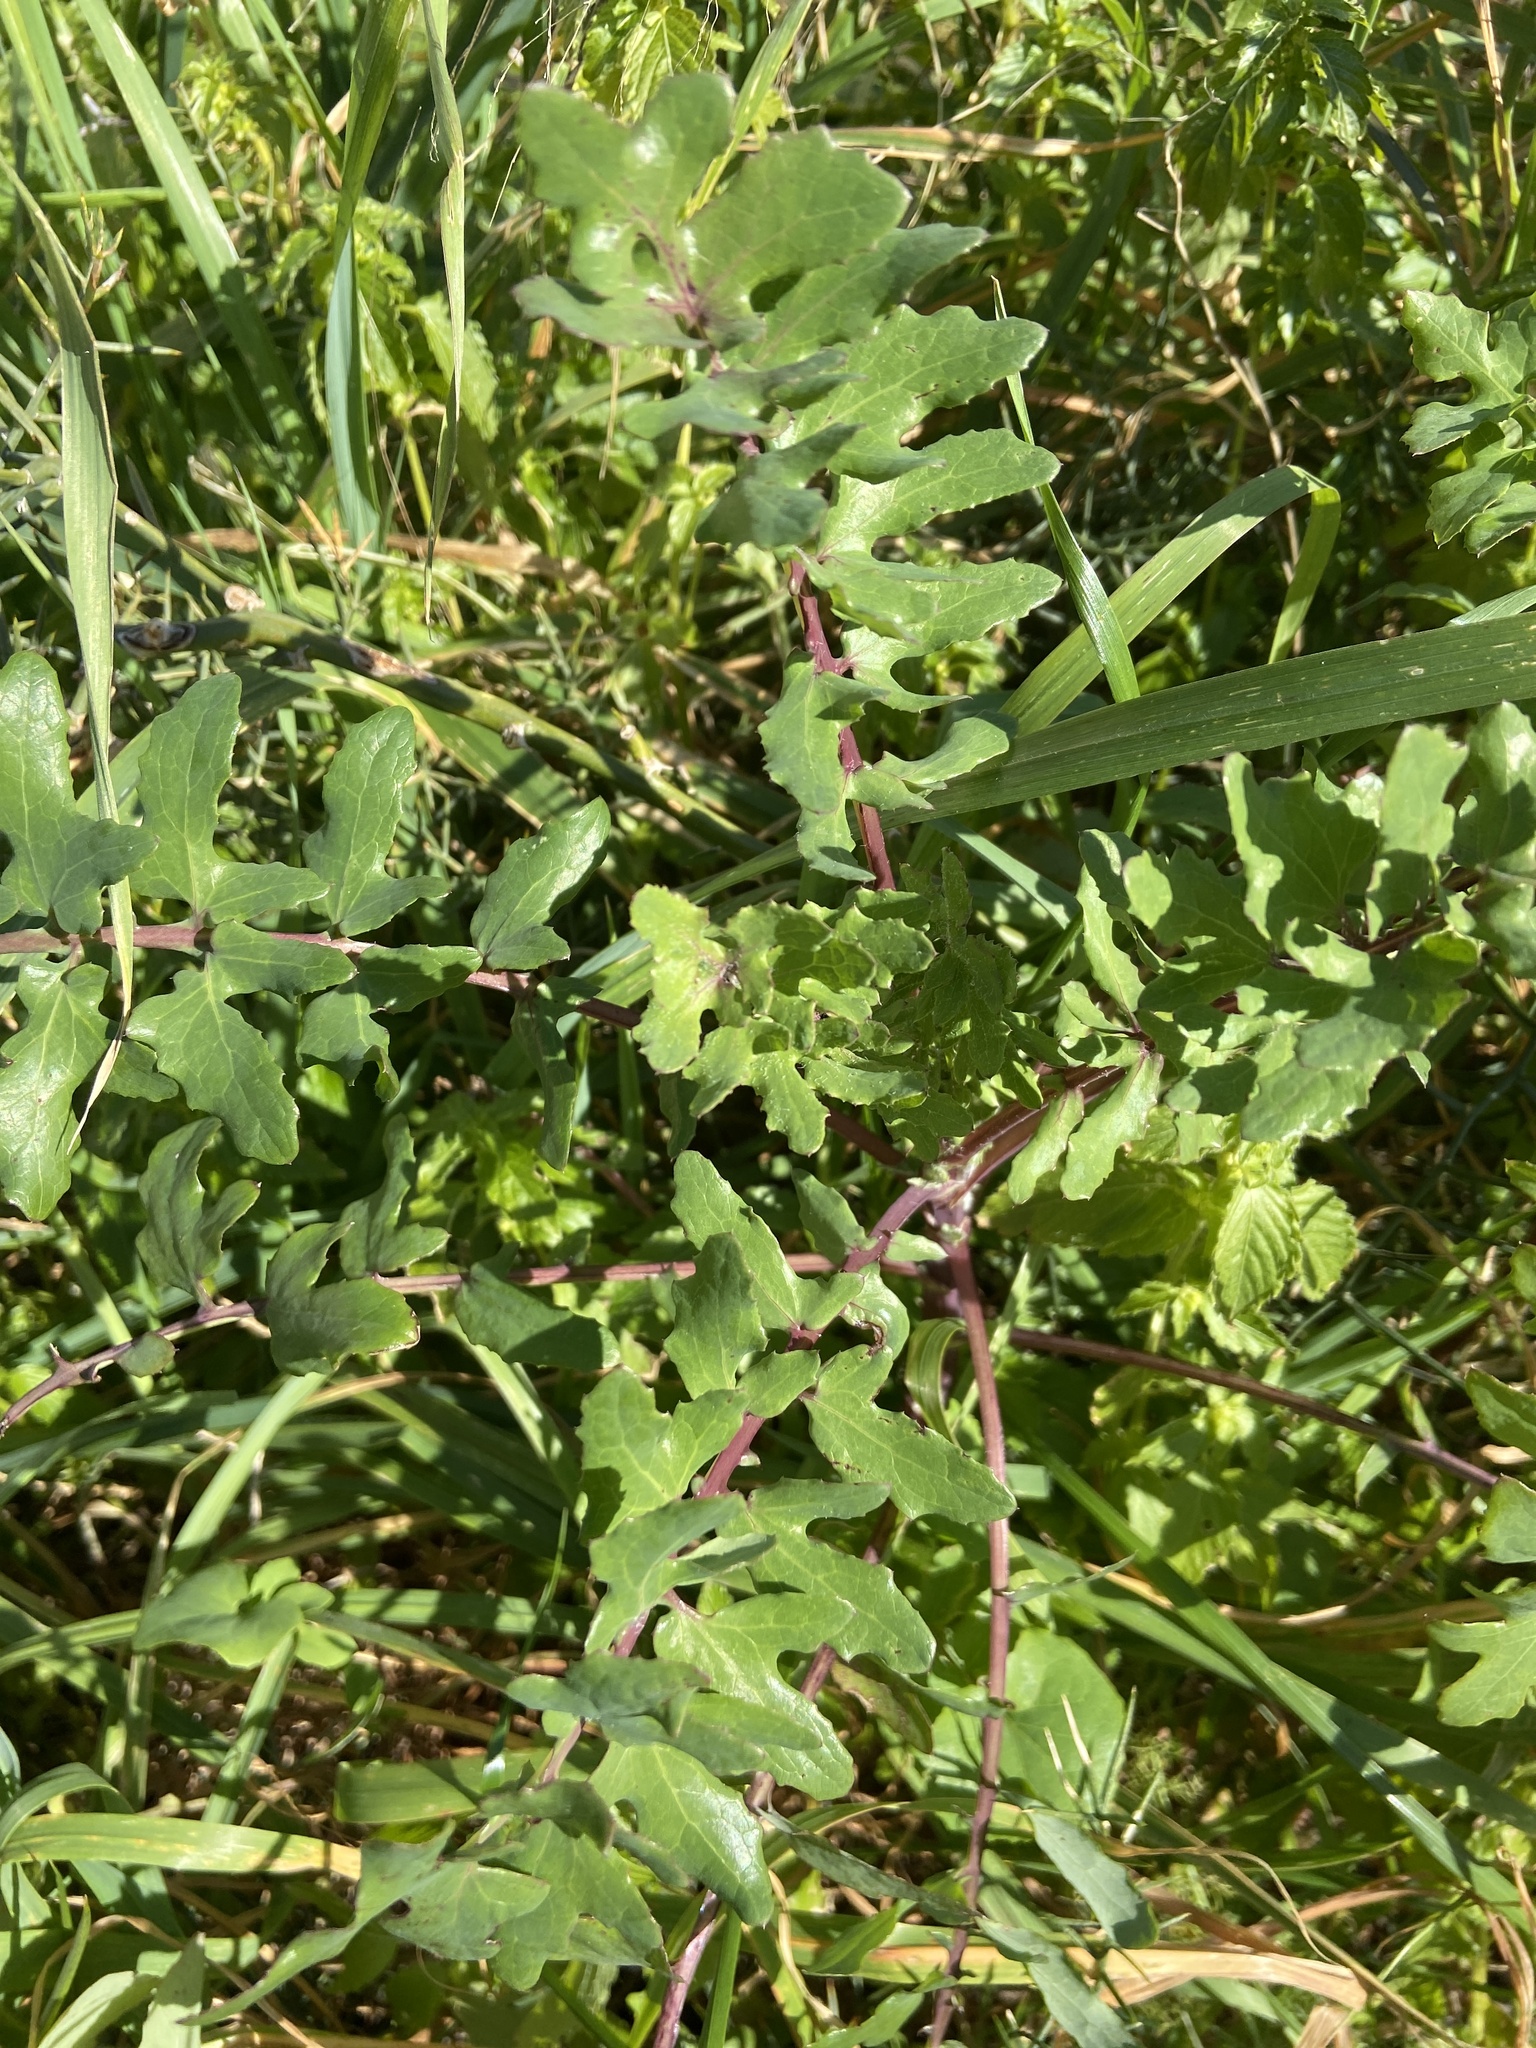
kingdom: Plantae
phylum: Tracheophyta
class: Magnoliopsida
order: Asterales
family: Asteraceae
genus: Sonchus
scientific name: Sonchus tenerrimus
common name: Clammy sowthistle
